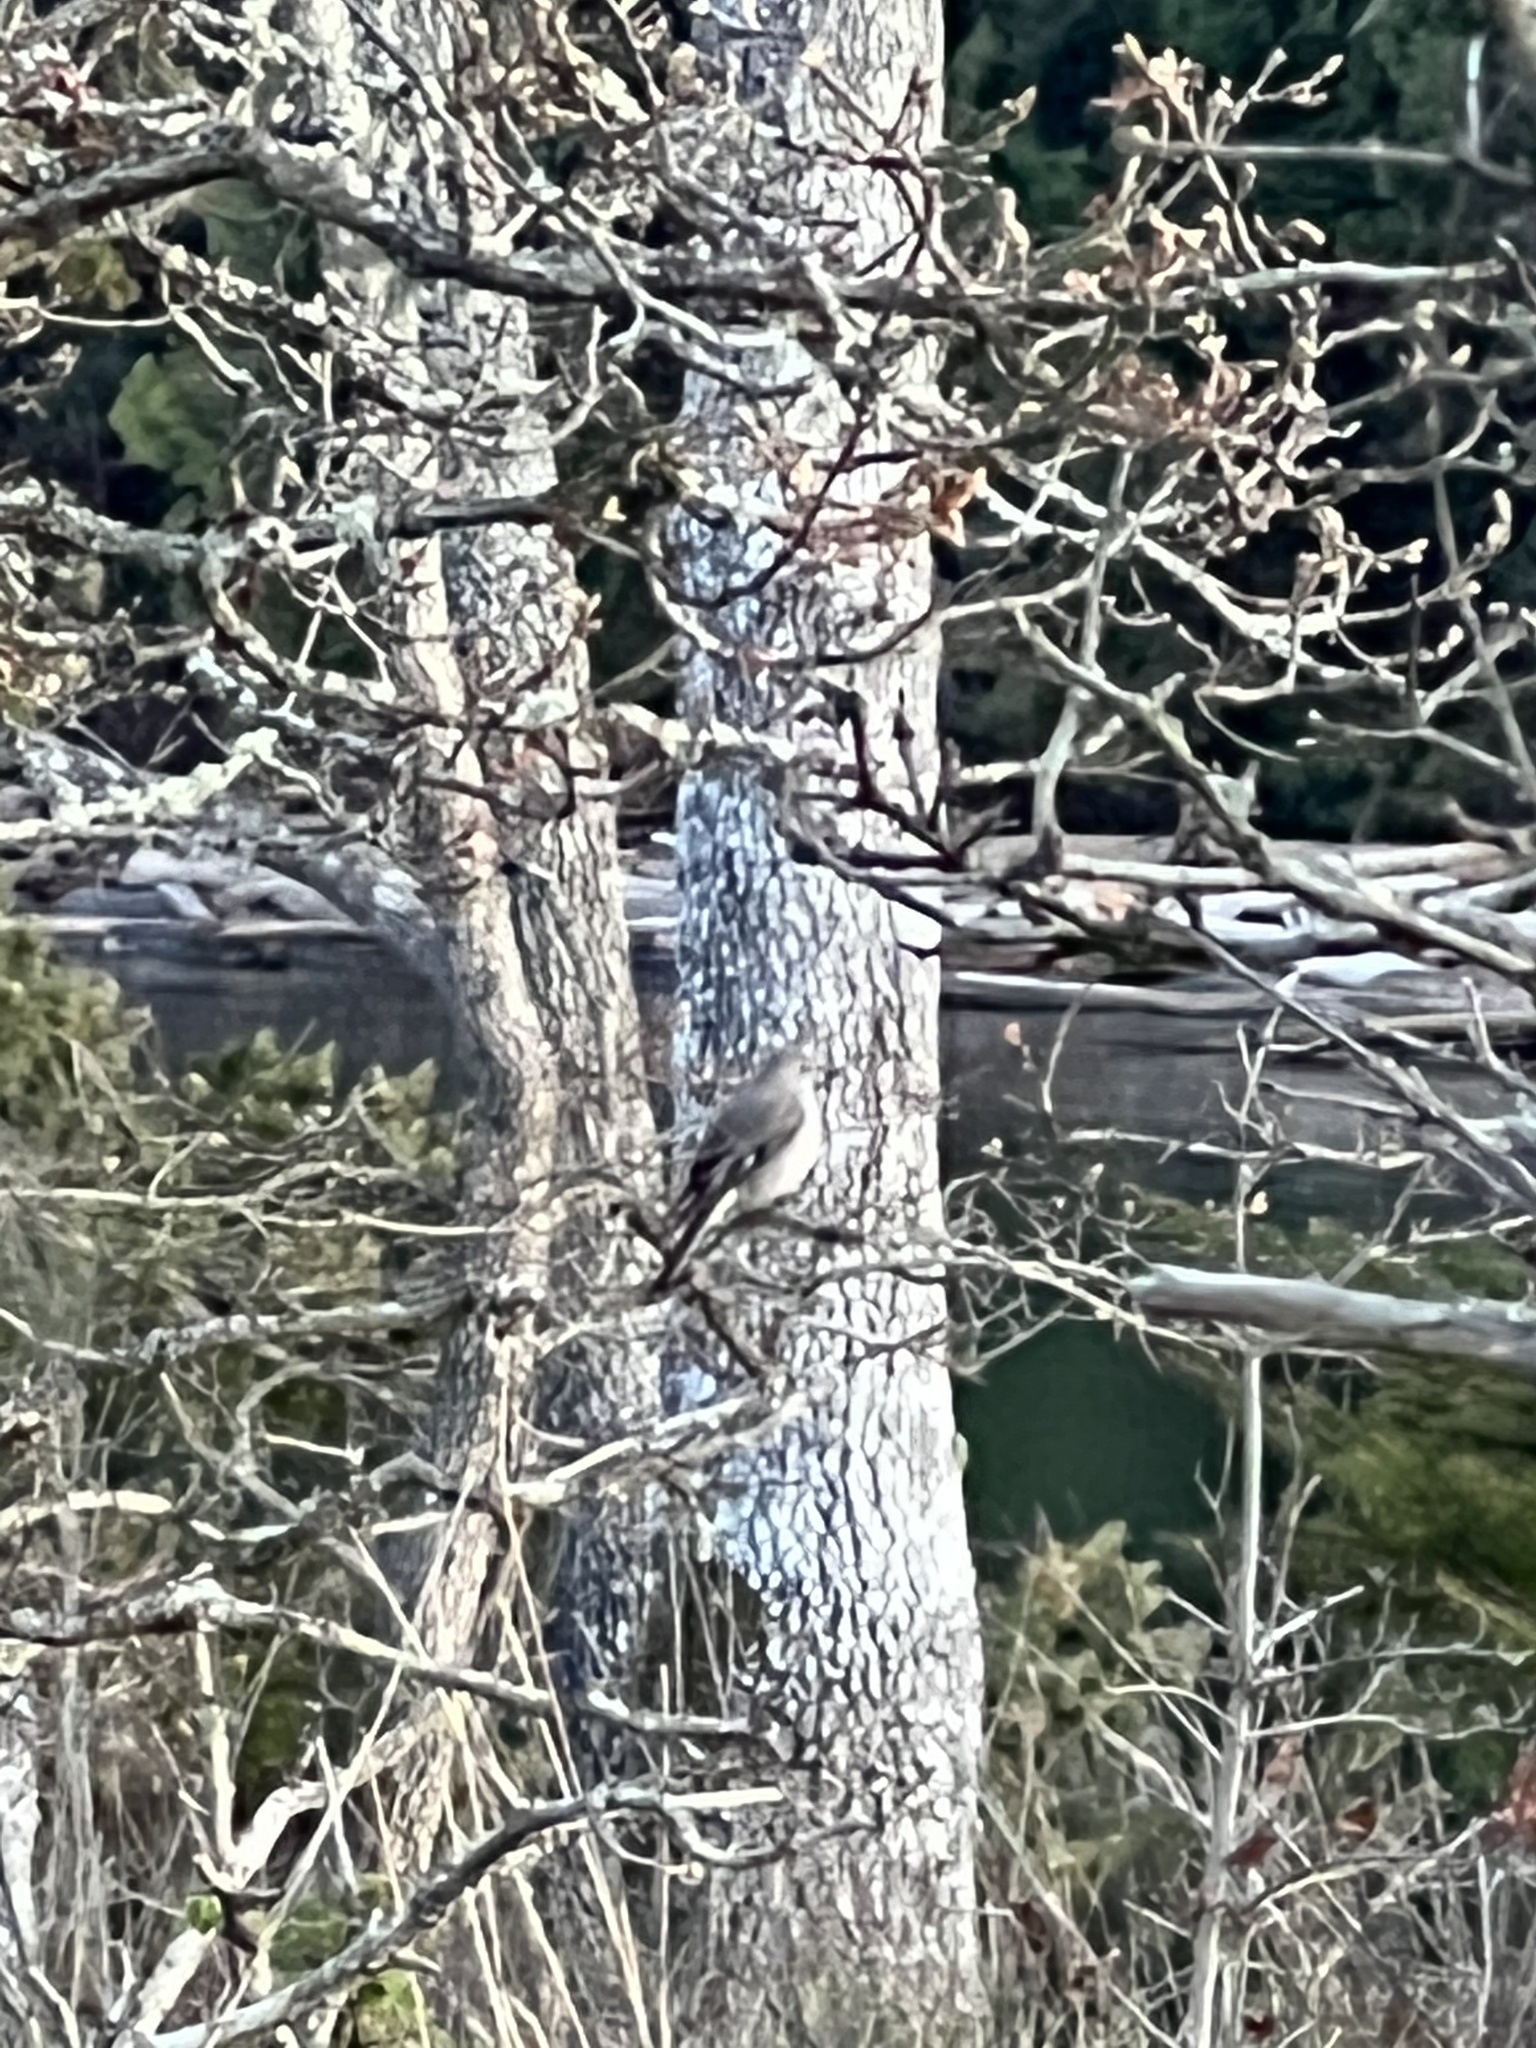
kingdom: Animalia
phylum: Chordata
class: Aves
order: Passeriformes
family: Turdidae
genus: Myadestes
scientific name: Myadestes townsendi
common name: Townsend's solitaire
